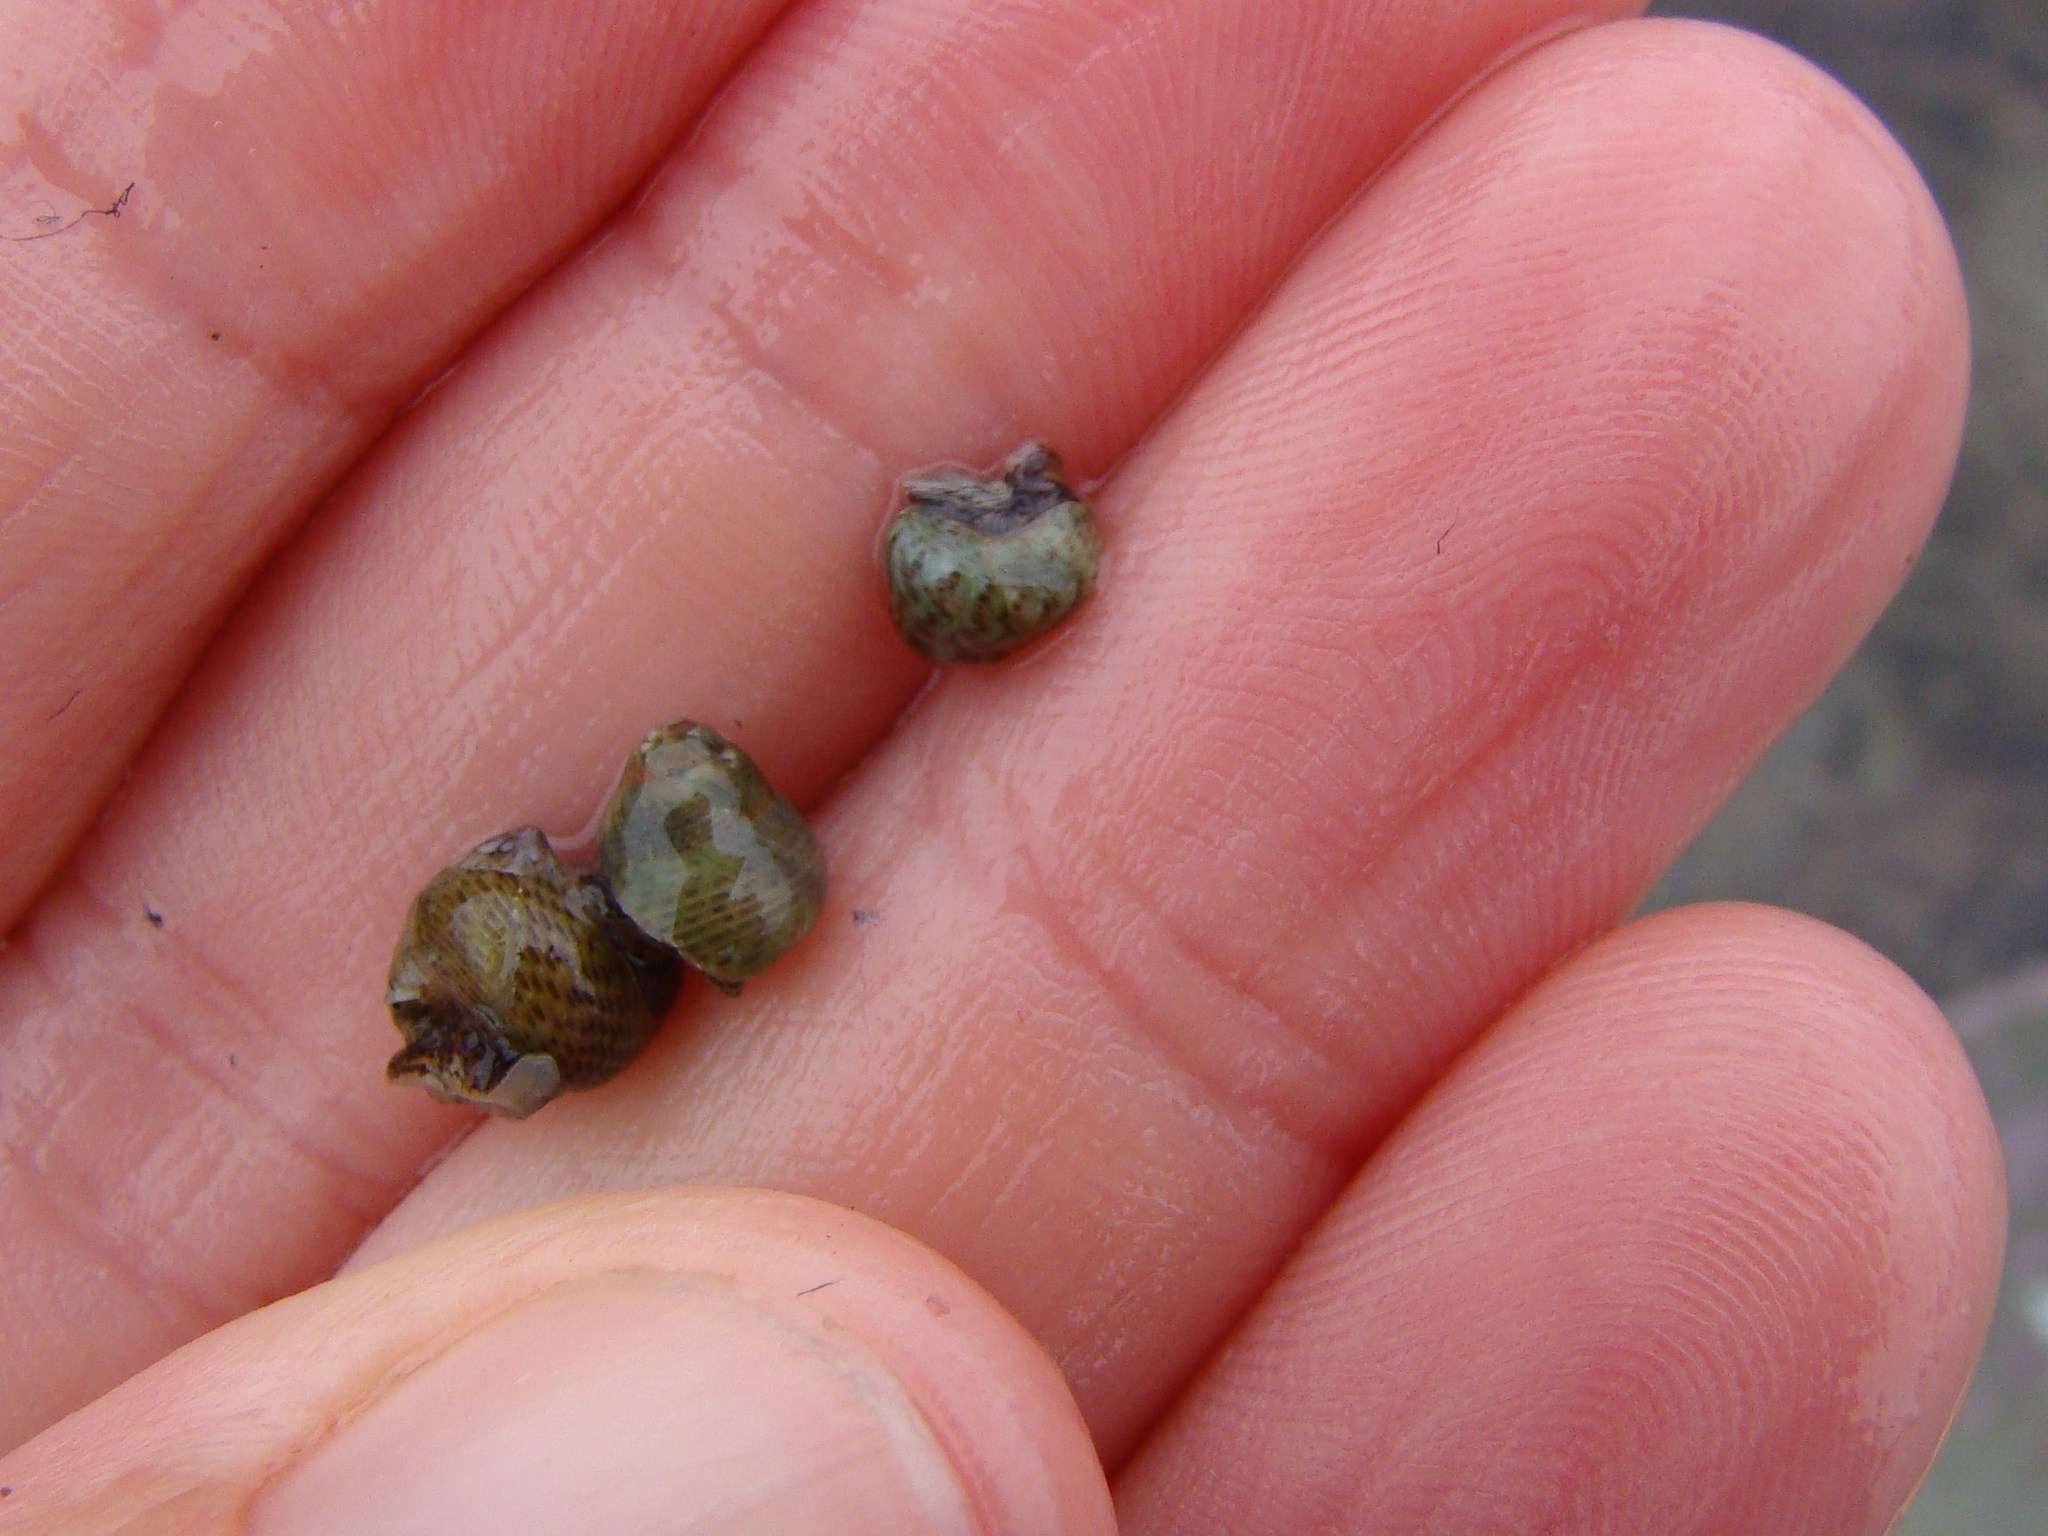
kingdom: Animalia
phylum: Mollusca
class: Gastropoda
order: Trochida
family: Trochidae
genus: Micrelenchus
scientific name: Micrelenchus tessellatus
